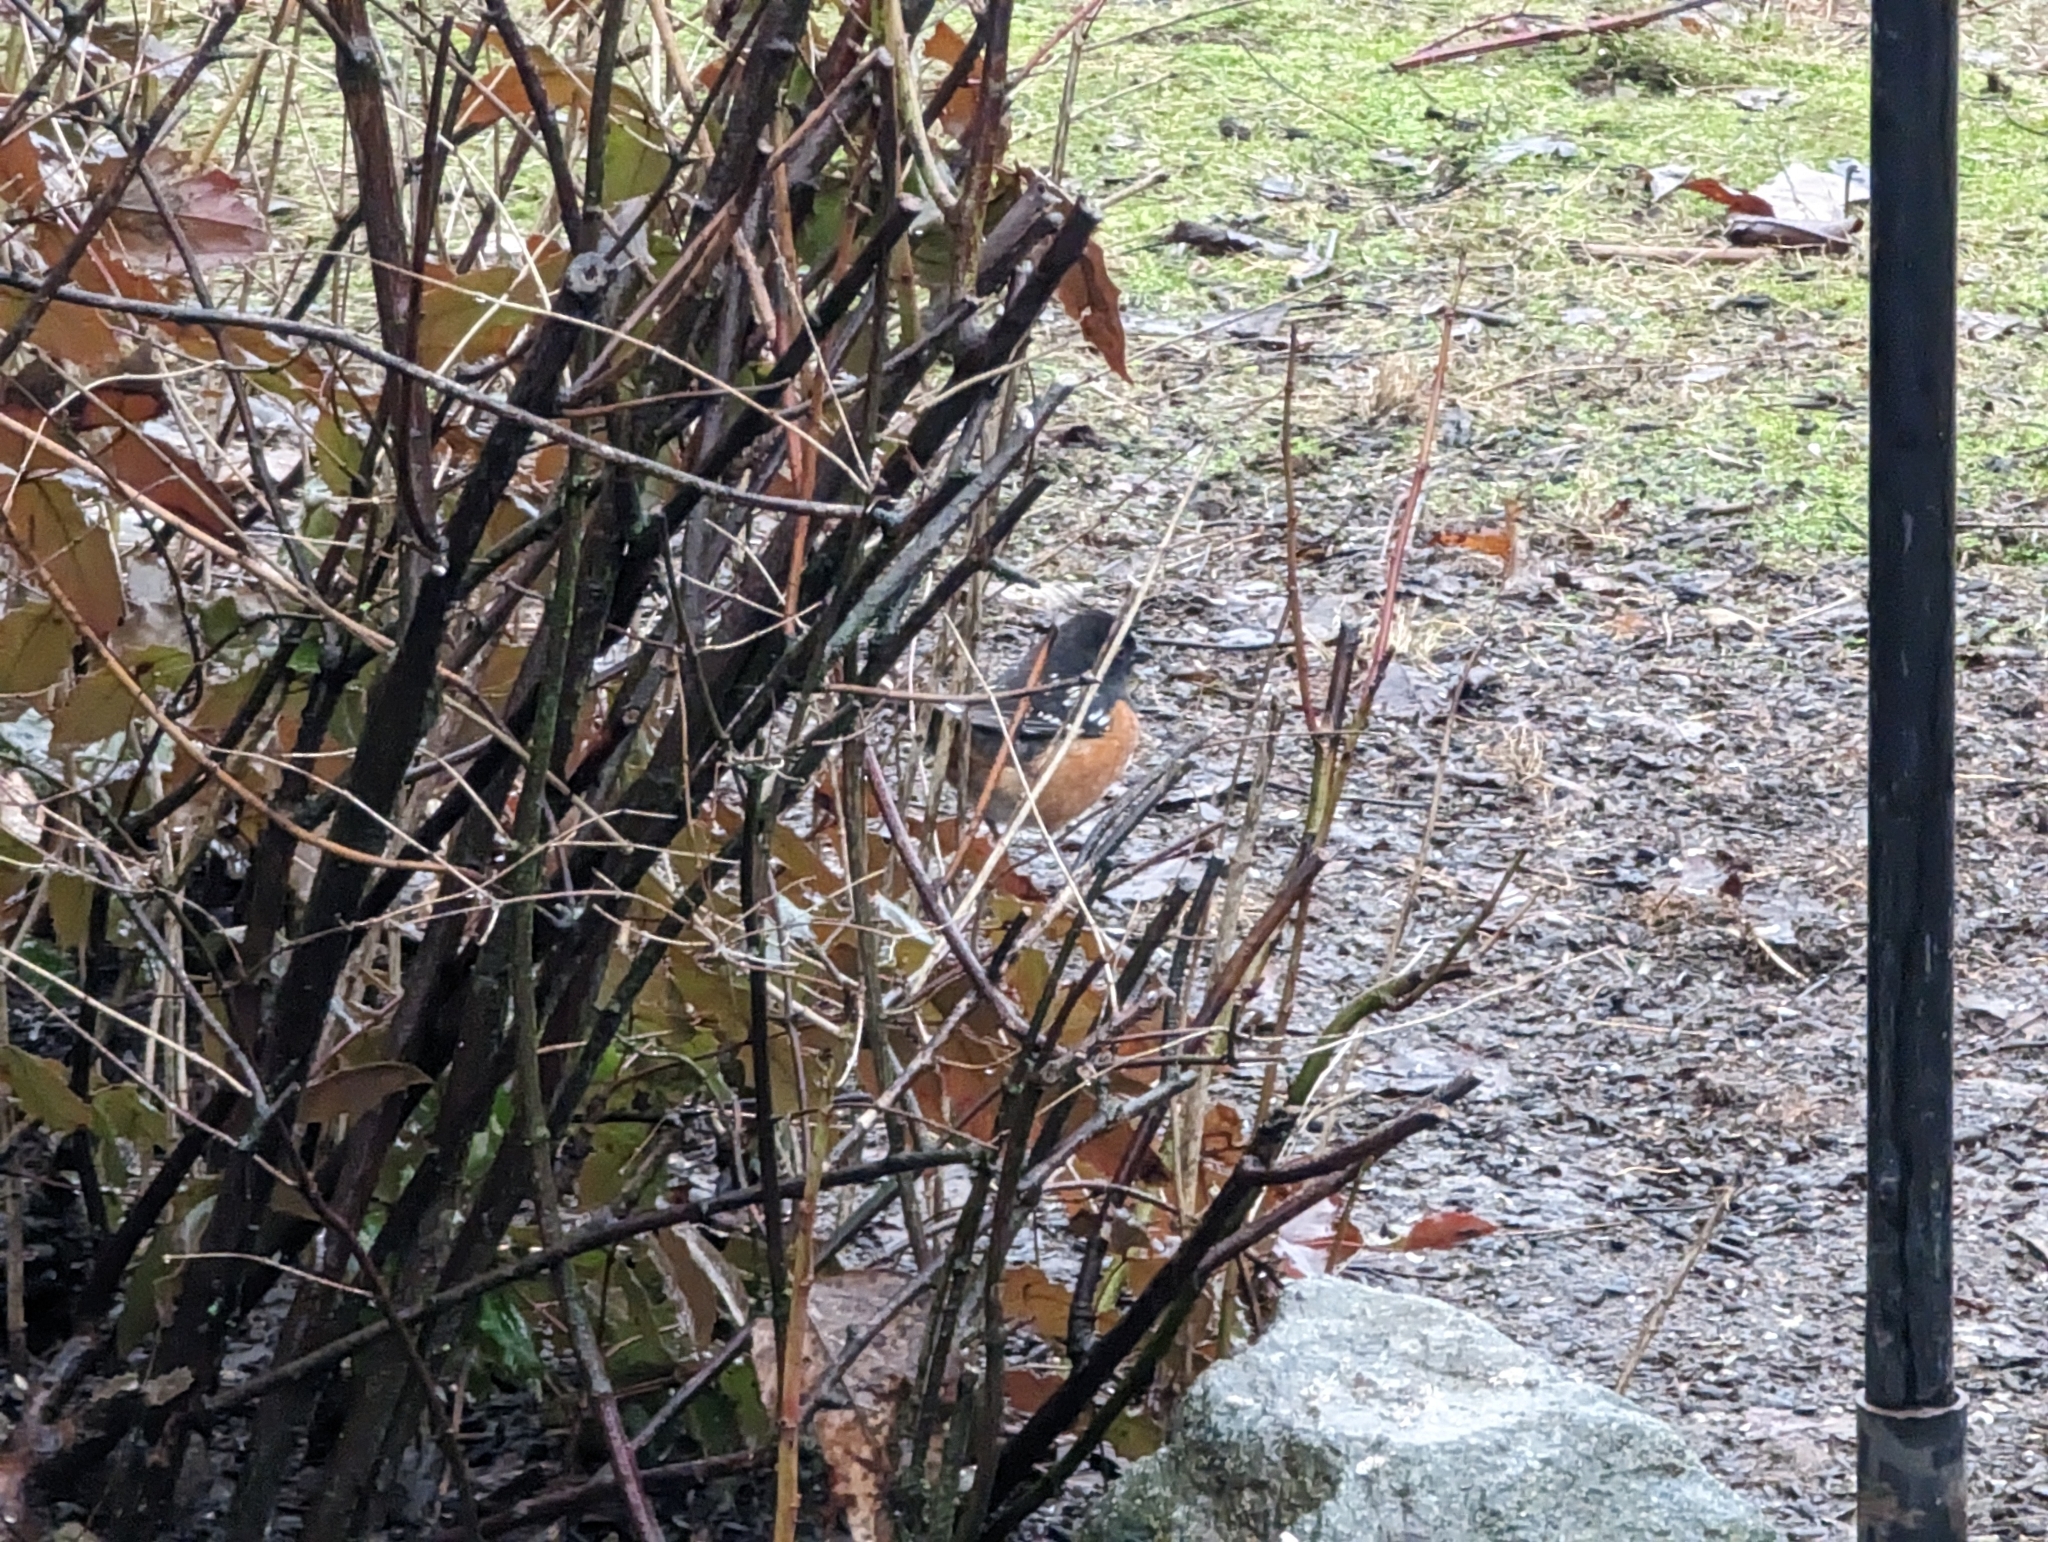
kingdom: Animalia
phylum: Chordata
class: Aves
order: Passeriformes
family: Passerellidae
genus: Pipilo
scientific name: Pipilo maculatus
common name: Spotted towhee
